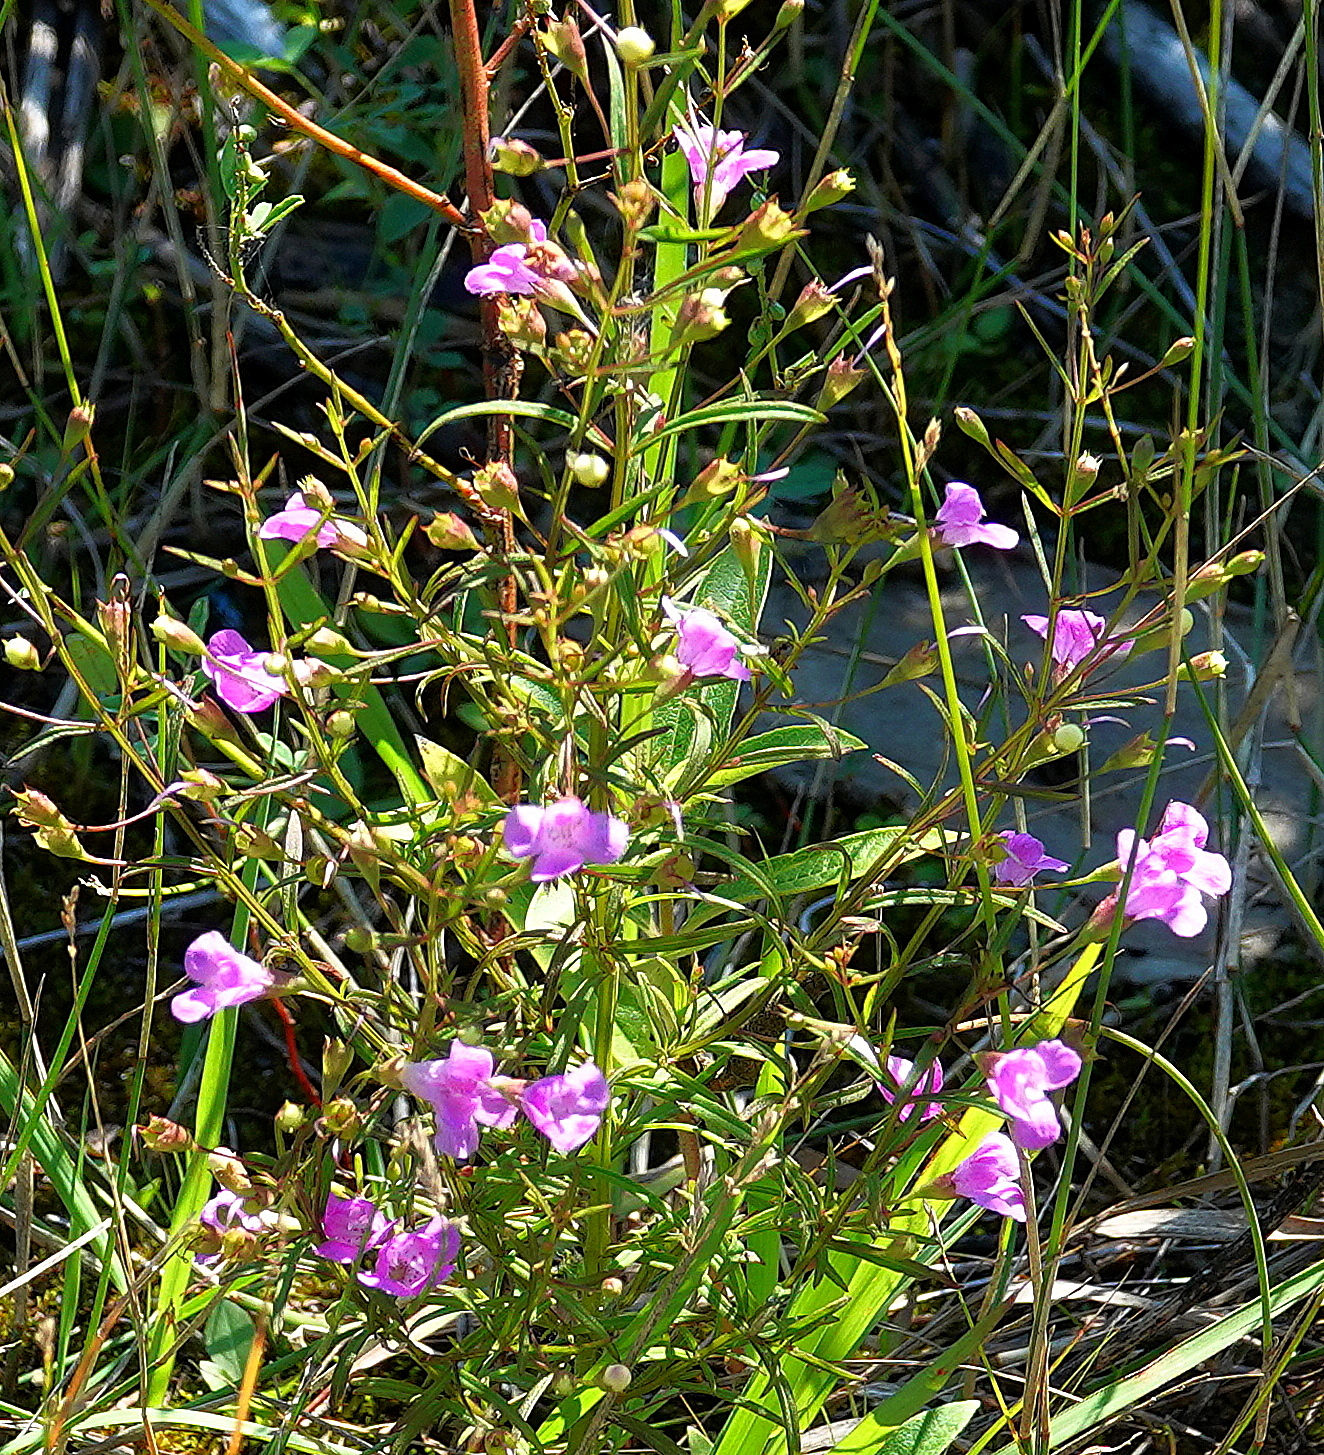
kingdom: Plantae
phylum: Tracheophyta
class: Magnoliopsida
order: Lamiales
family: Orobanchaceae
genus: Agalinis
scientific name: Agalinis tenuifolia
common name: Slender agalinis
